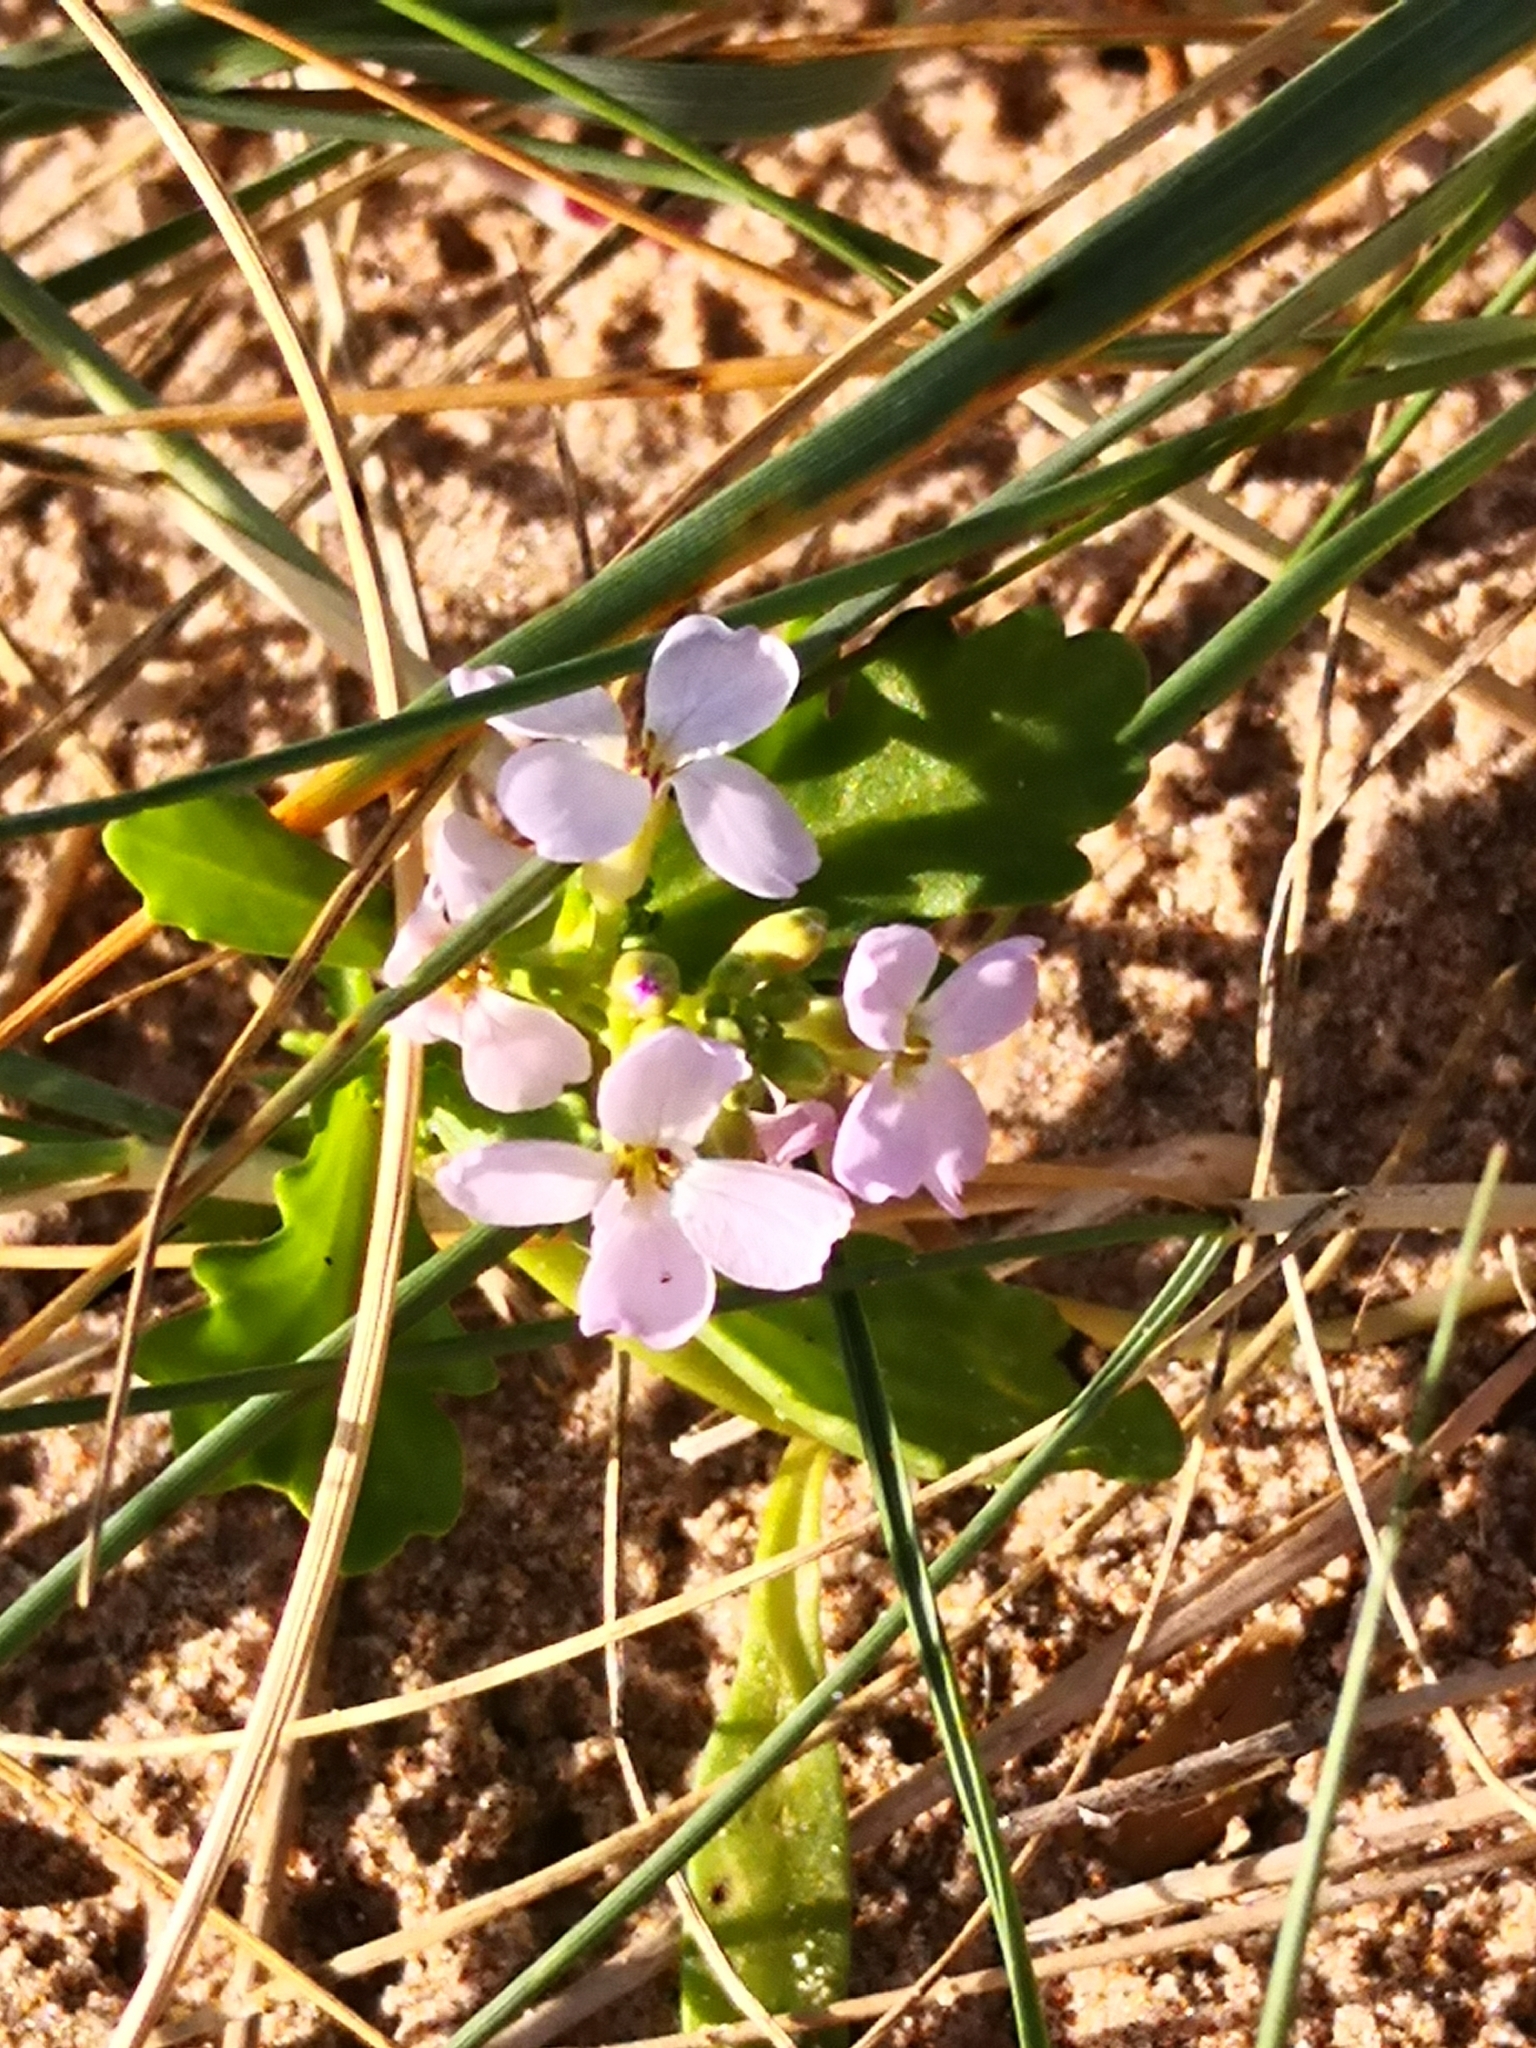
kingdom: Plantae
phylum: Tracheophyta
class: Magnoliopsida
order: Brassicales
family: Brassicaceae
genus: Cakile
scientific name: Cakile maritima
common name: Sea rocket
